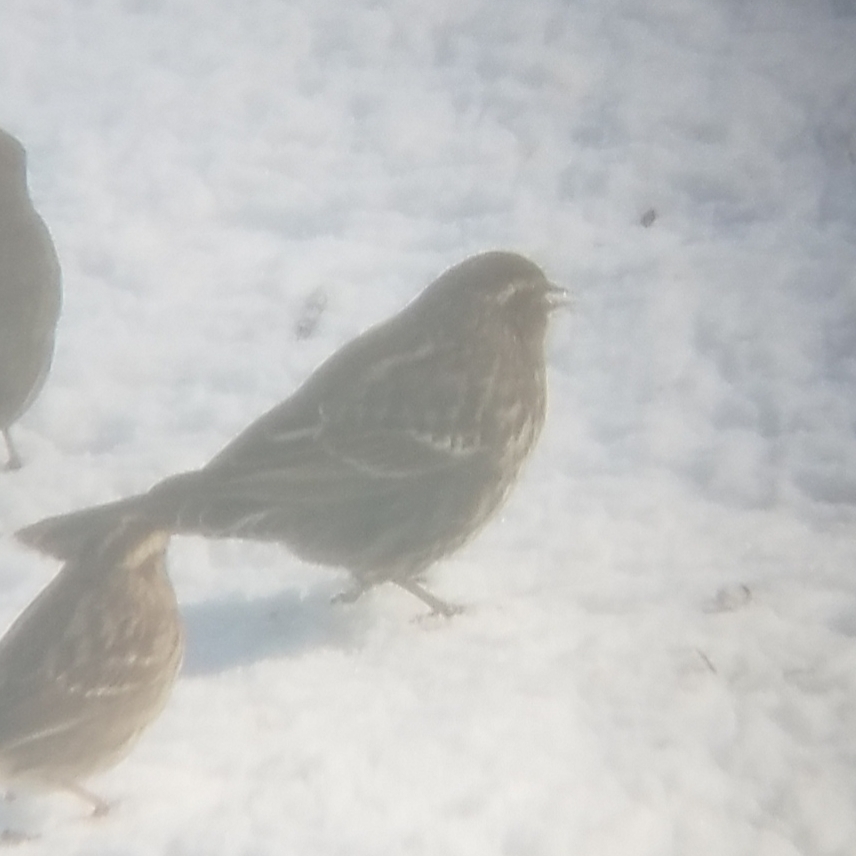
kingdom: Animalia
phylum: Chordata
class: Aves
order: Passeriformes
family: Icteridae
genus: Agelaius
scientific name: Agelaius phoeniceus
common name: Red-winged blackbird
